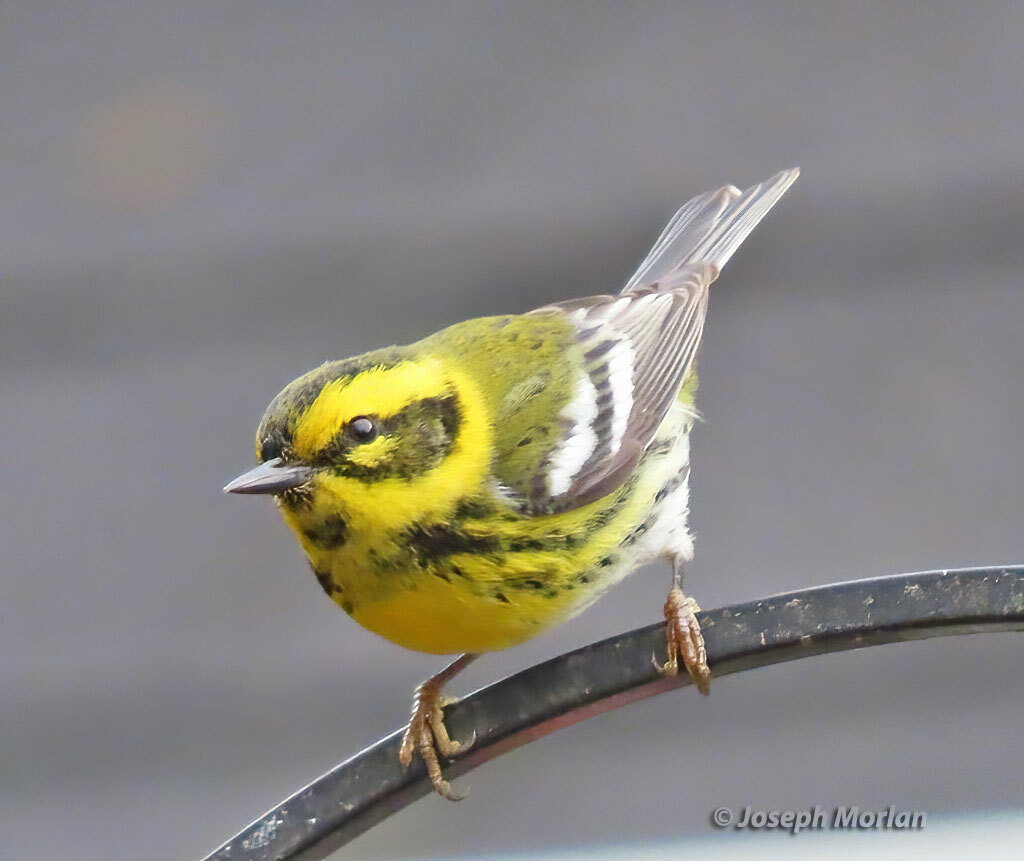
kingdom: Animalia
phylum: Chordata
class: Aves
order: Passeriformes
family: Parulidae
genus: Setophaga
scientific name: Setophaga townsendi
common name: Townsend's warbler
